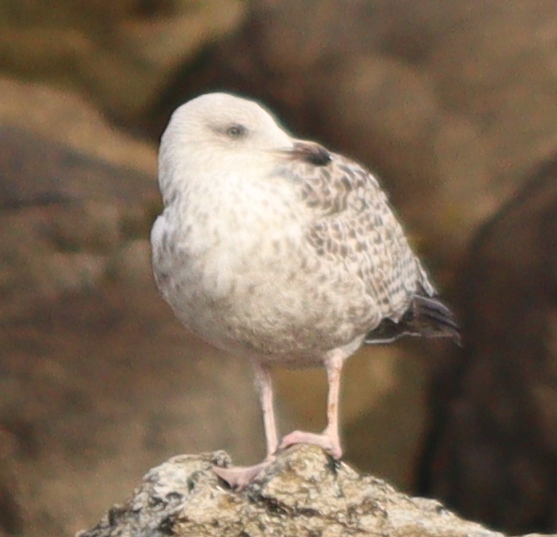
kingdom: Animalia
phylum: Chordata
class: Aves
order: Charadriiformes
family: Laridae
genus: Larus
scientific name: Larus argentatus
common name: Herring gull
